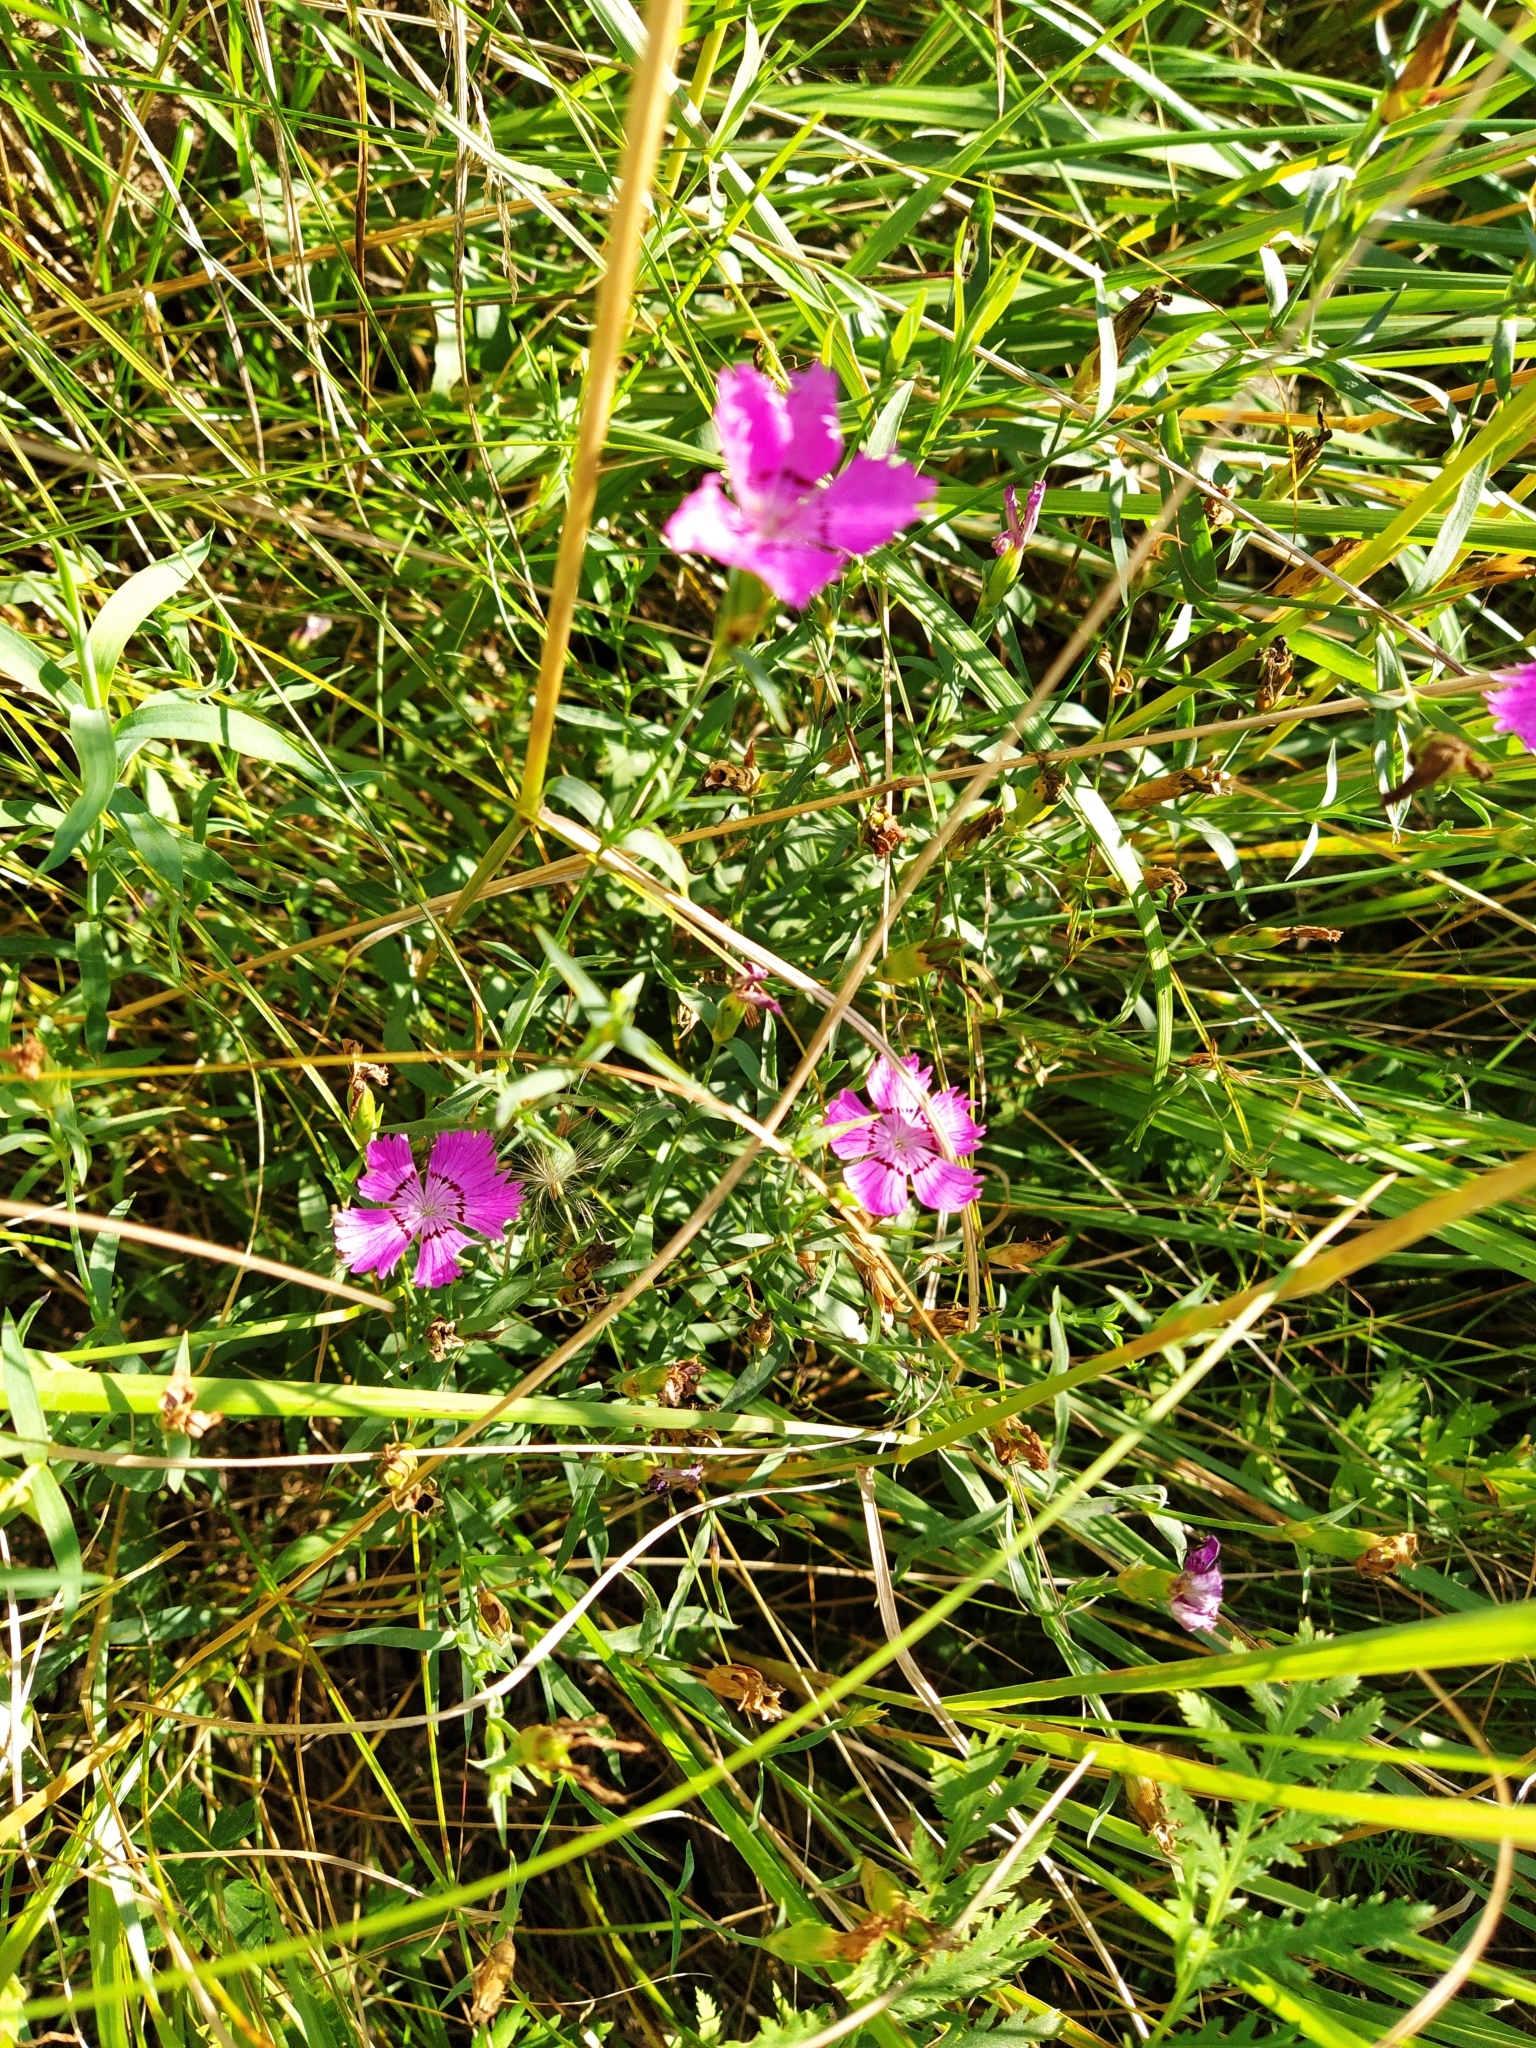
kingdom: Plantae
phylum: Tracheophyta
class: Magnoliopsida
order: Caryophyllales
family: Caryophyllaceae
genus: Dianthus
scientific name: Dianthus chinensis
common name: Rainbow pink
